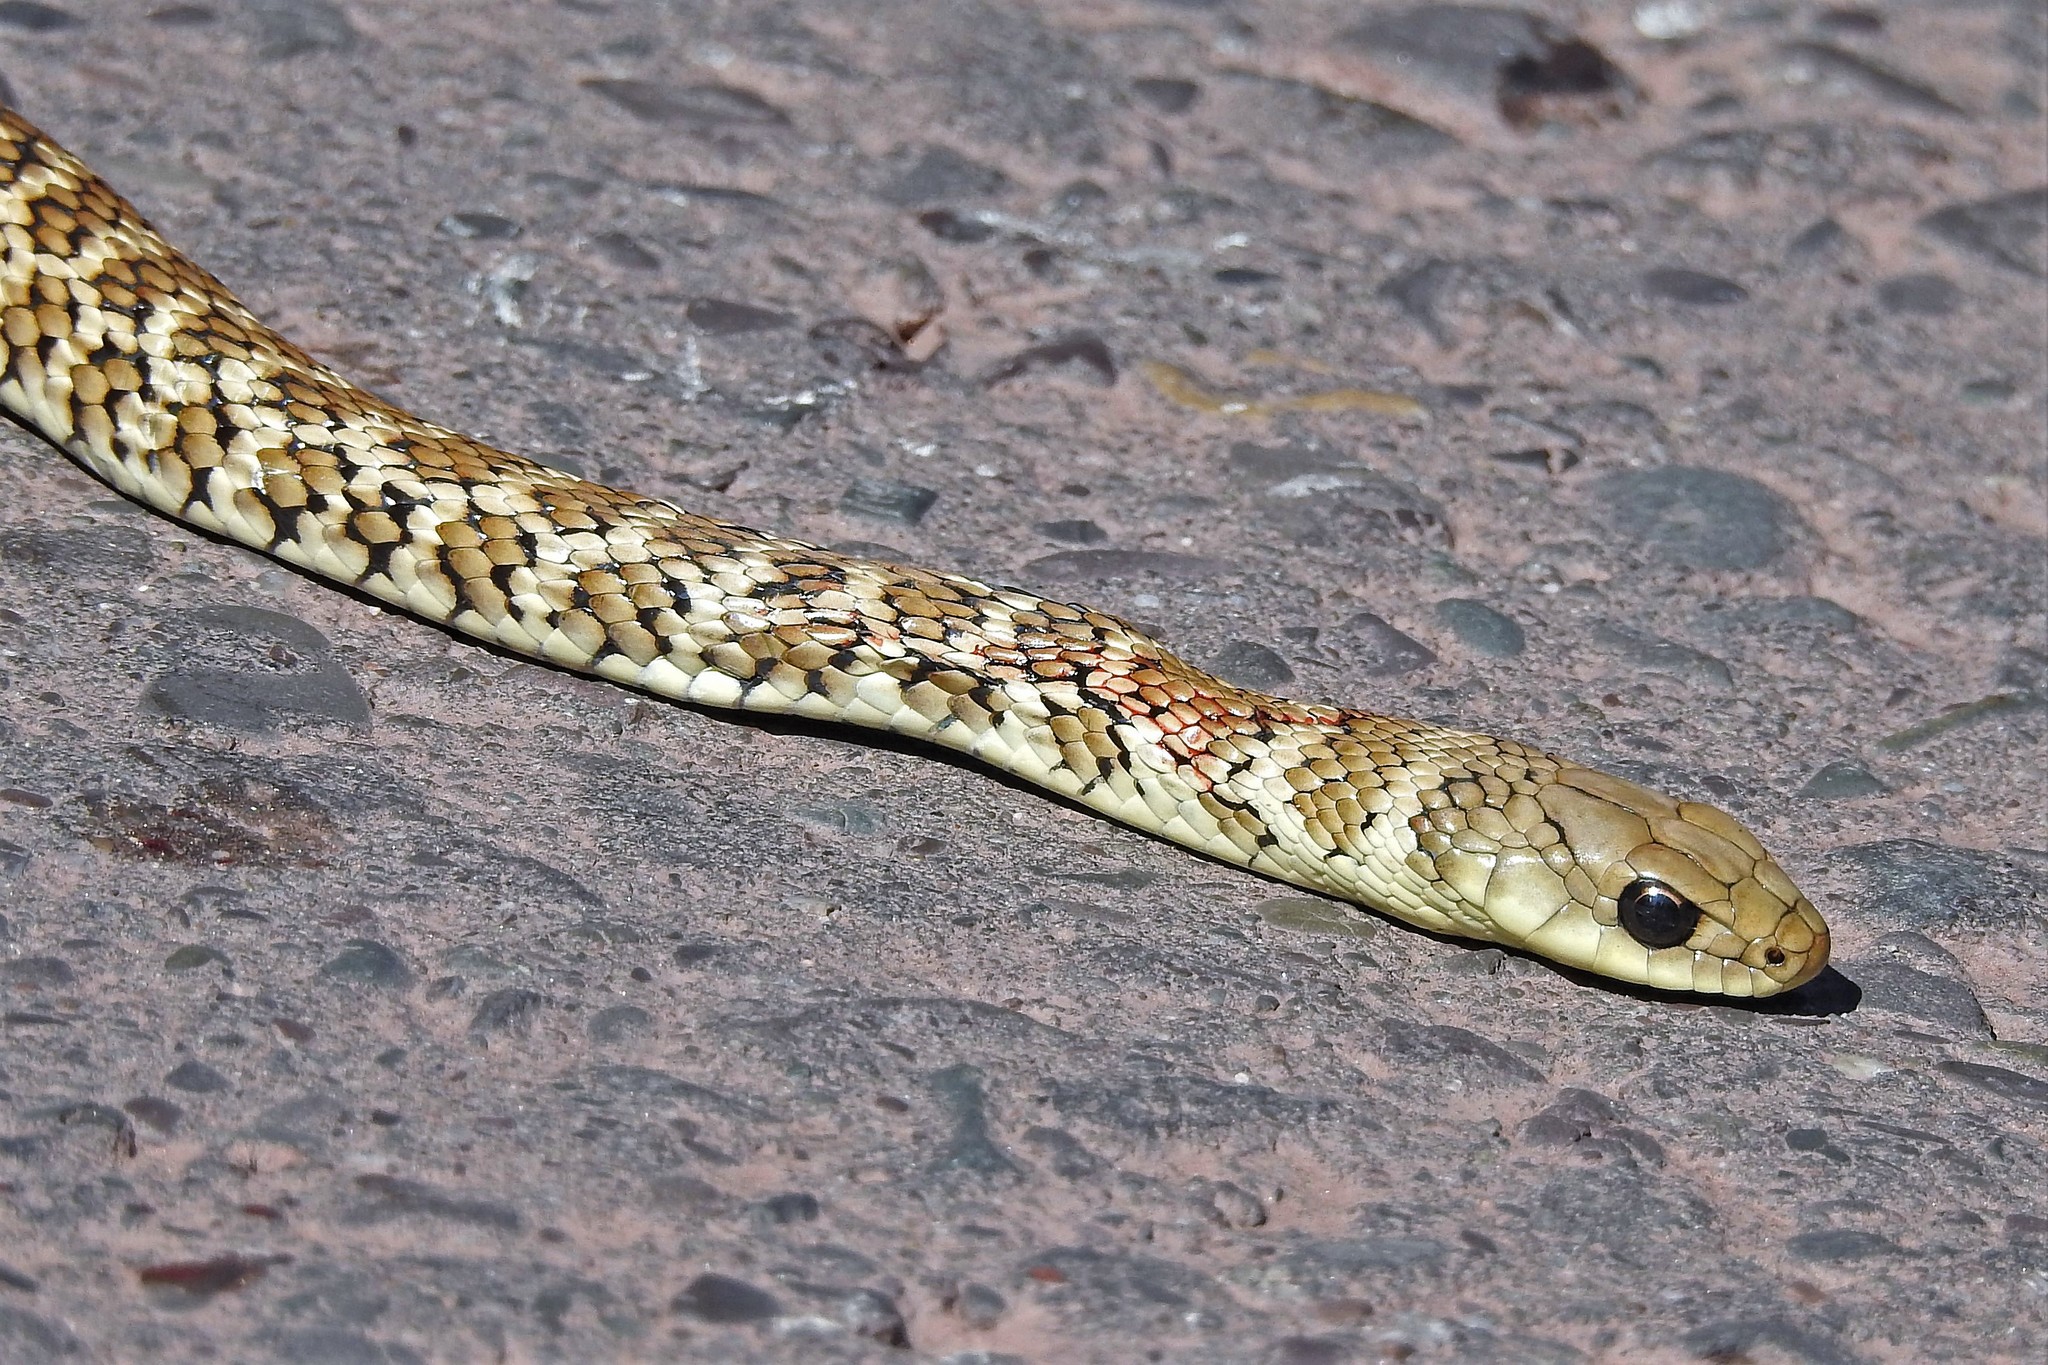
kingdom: Animalia
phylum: Chordata
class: Squamata
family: Colubridae
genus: Philodryas
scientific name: Philodryas varia
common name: Jan's green racer
